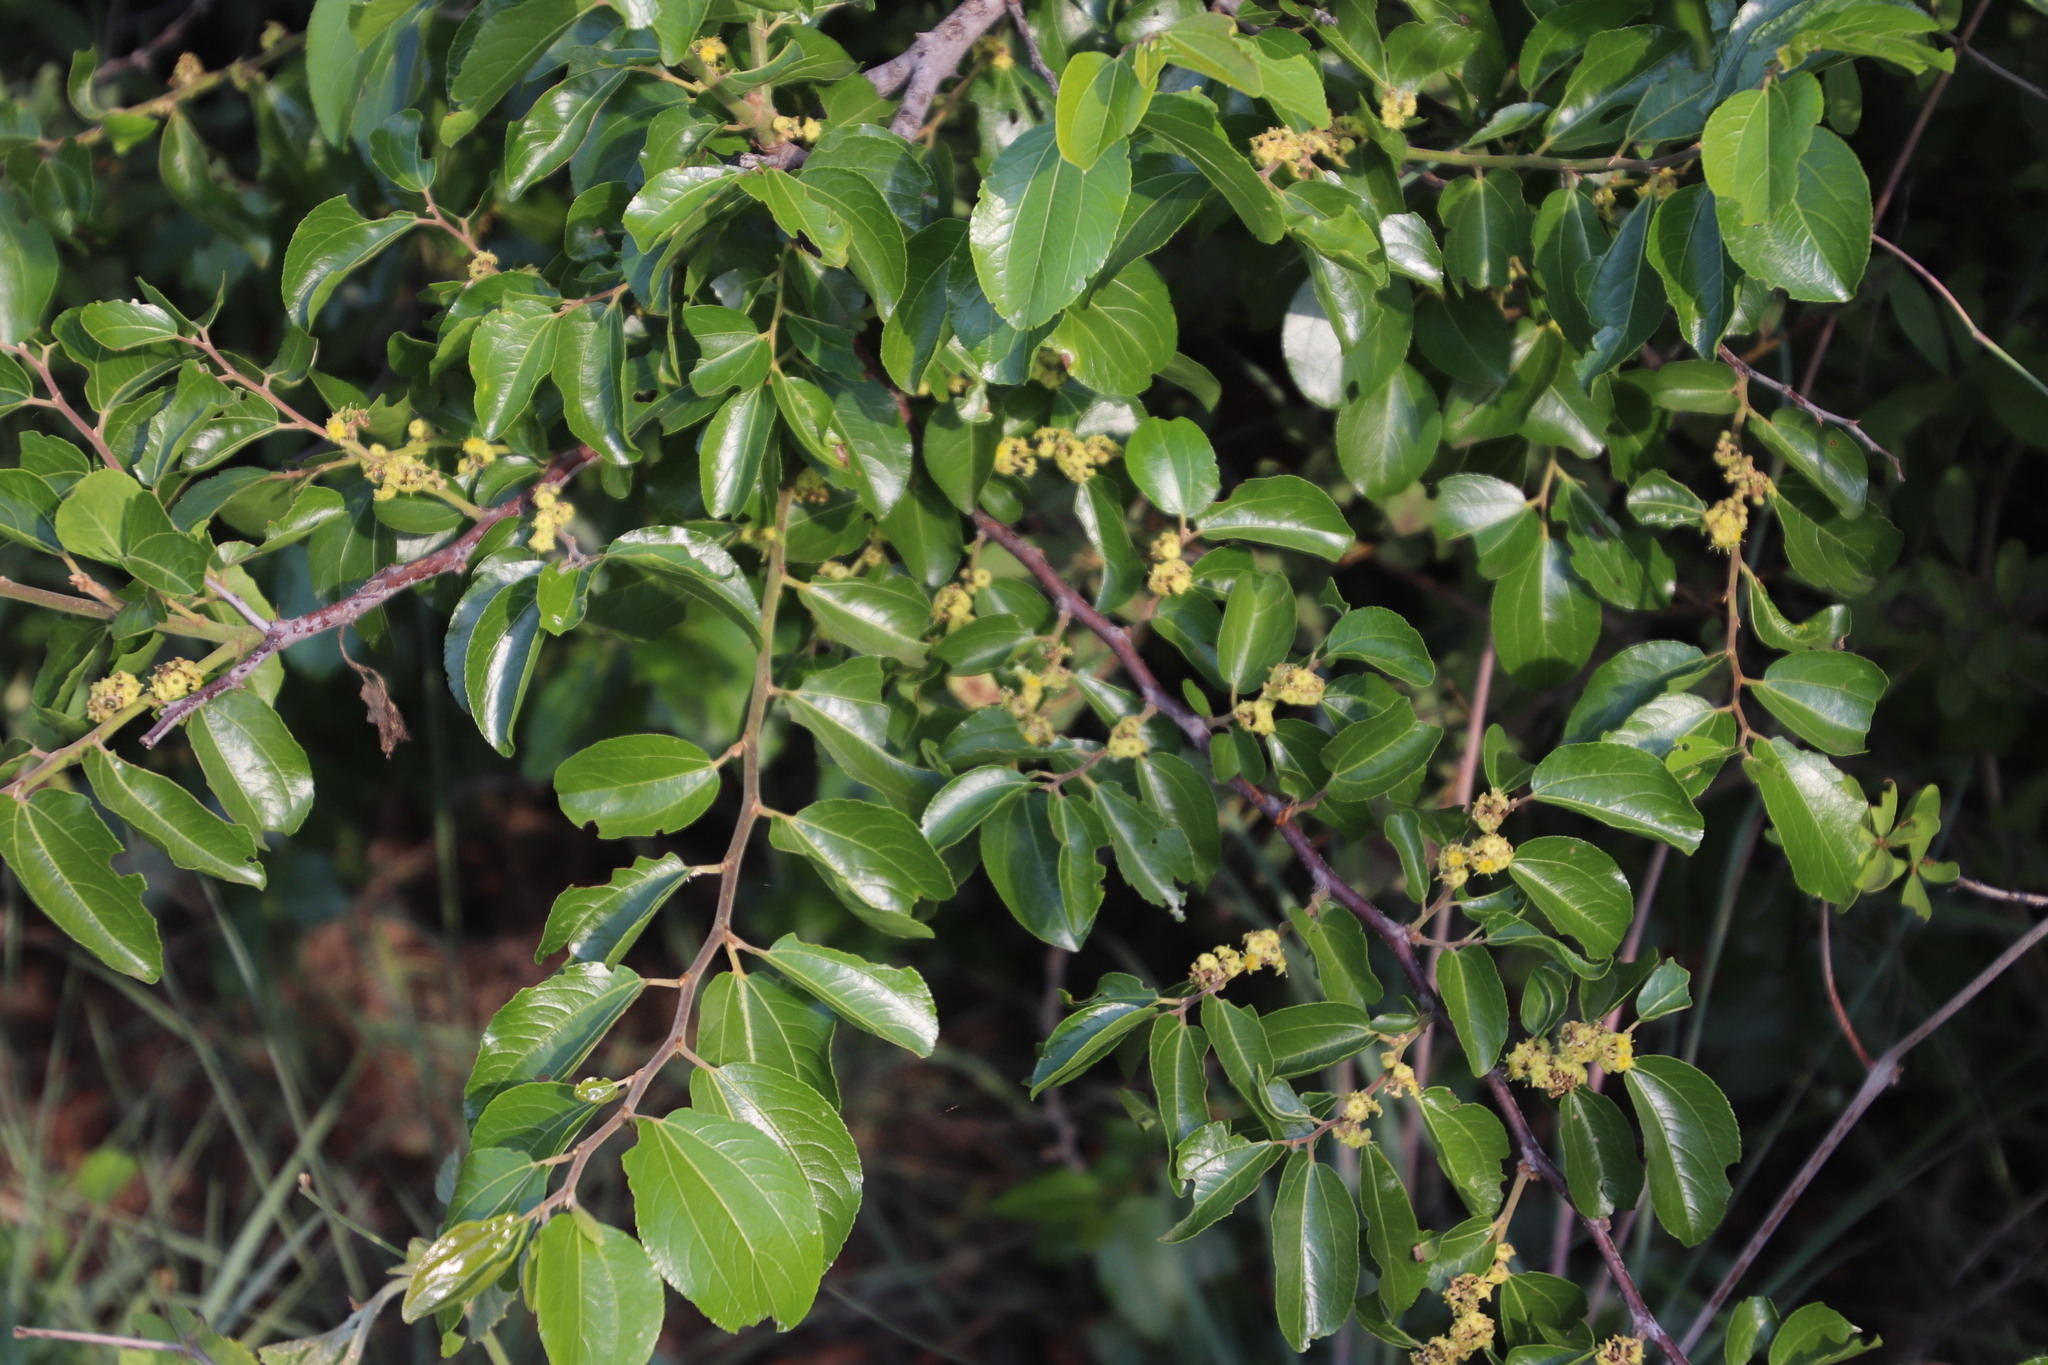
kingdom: Plantae
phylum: Tracheophyta
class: Magnoliopsida
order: Rosales
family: Rhamnaceae
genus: Ziziphus
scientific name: Ziziphus mucronata
